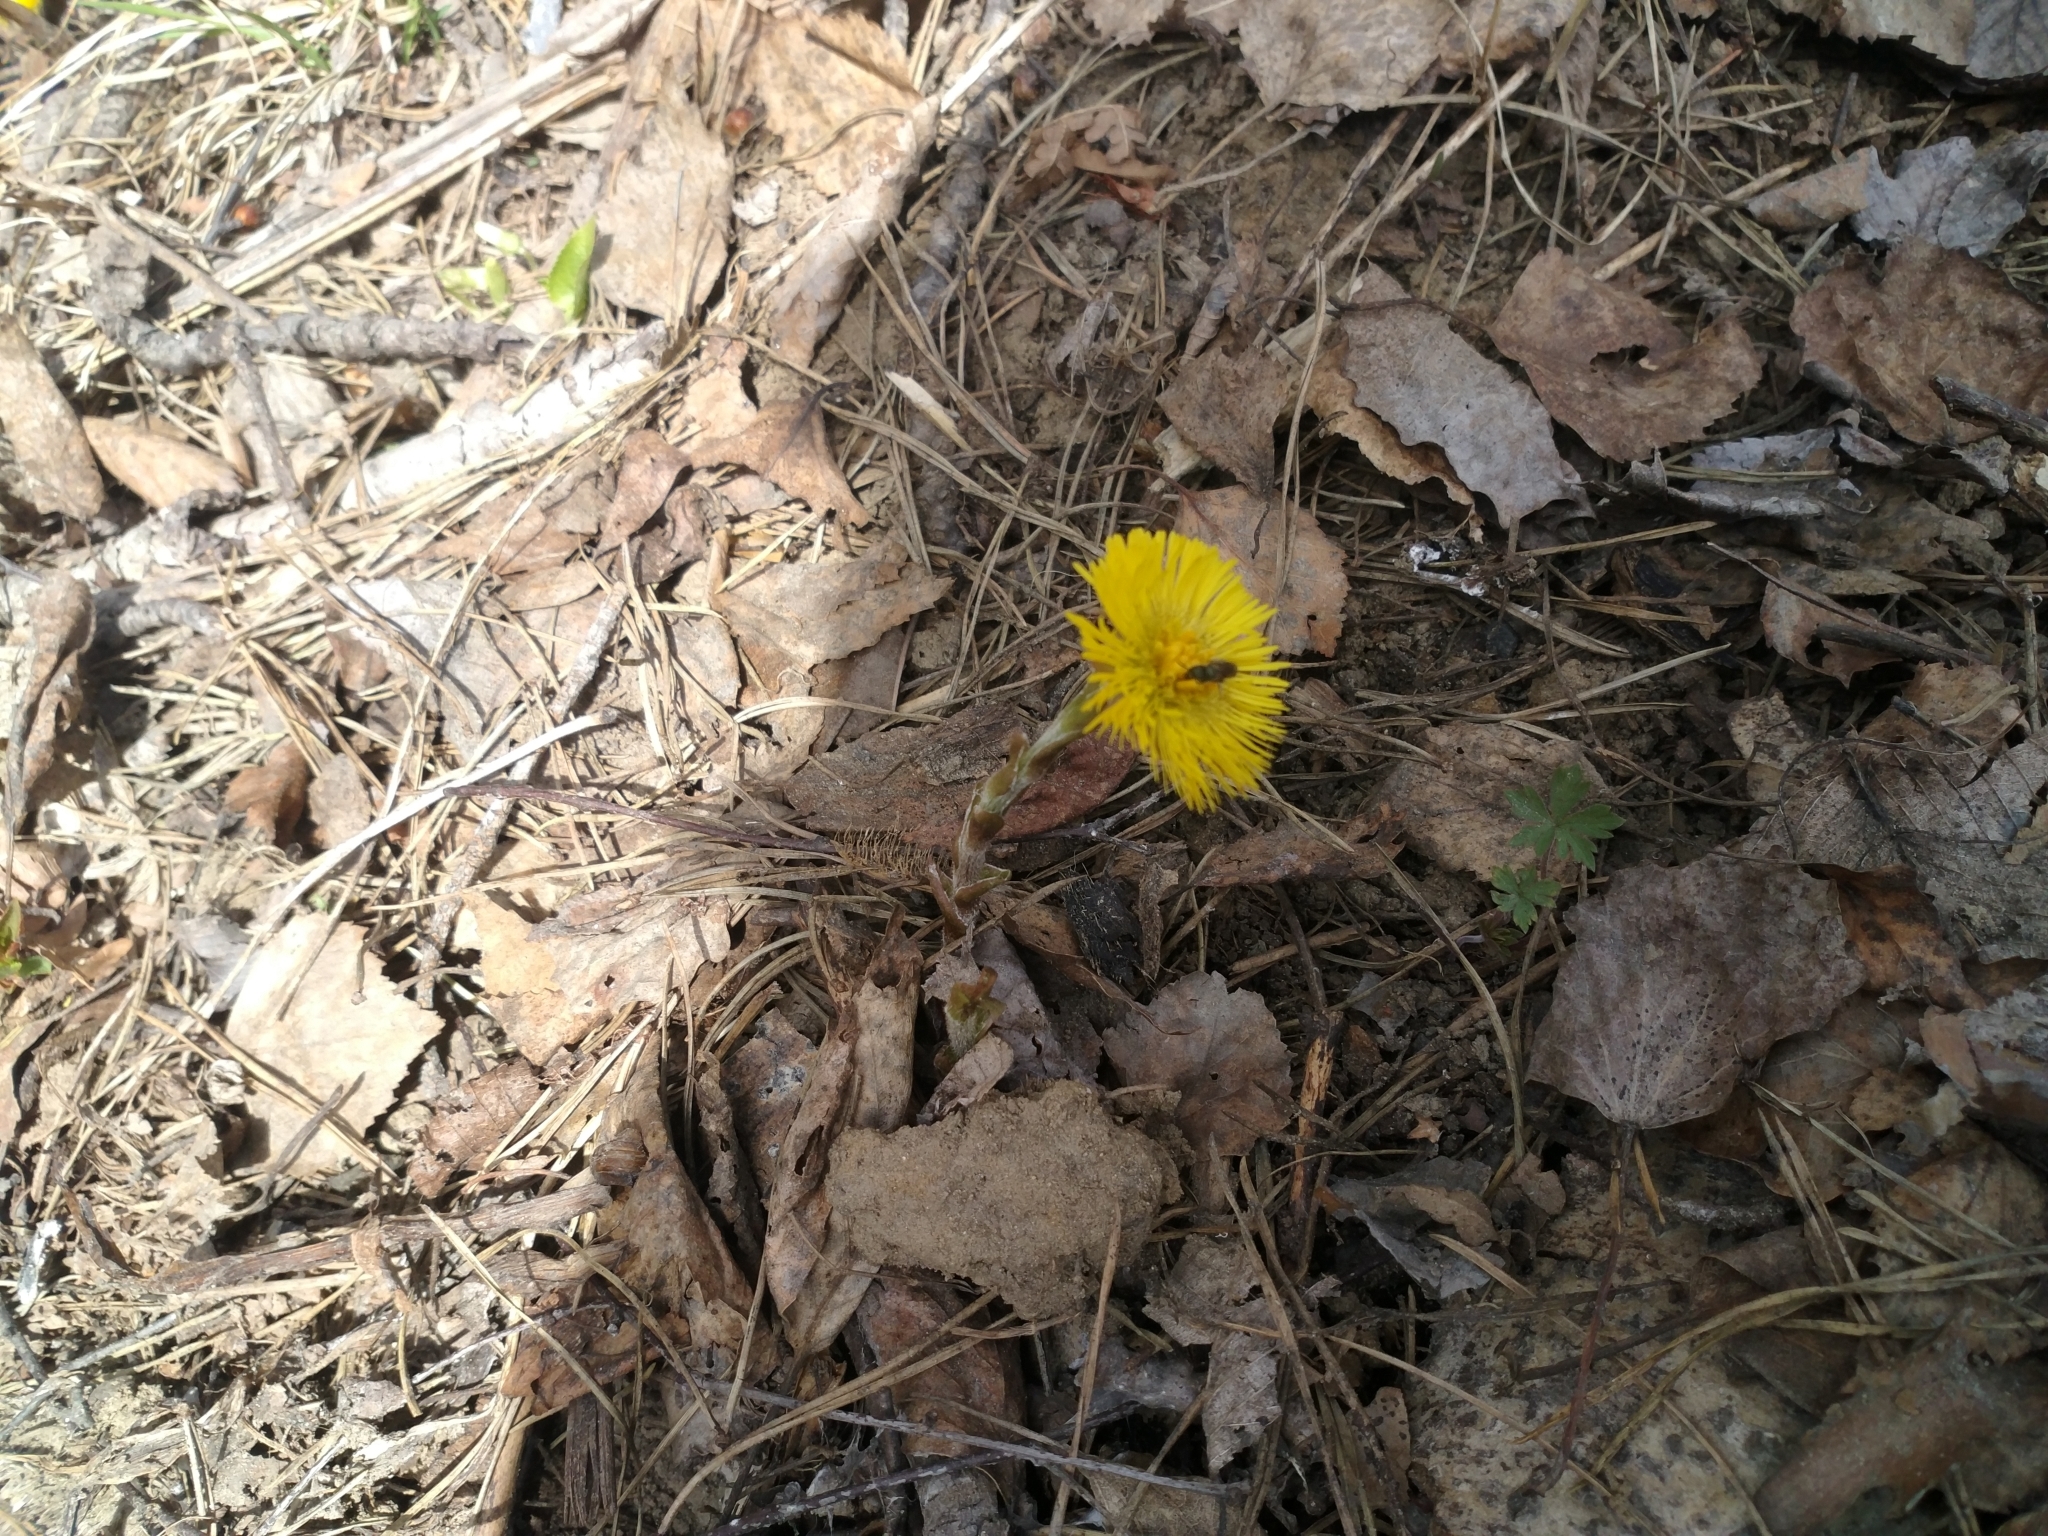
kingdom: Plantae
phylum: Tracheophyta
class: Magnoliopsida
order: Asterales
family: Asteraceae
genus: Tussilago
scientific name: Tussilago farfara
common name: Coltsfoot
